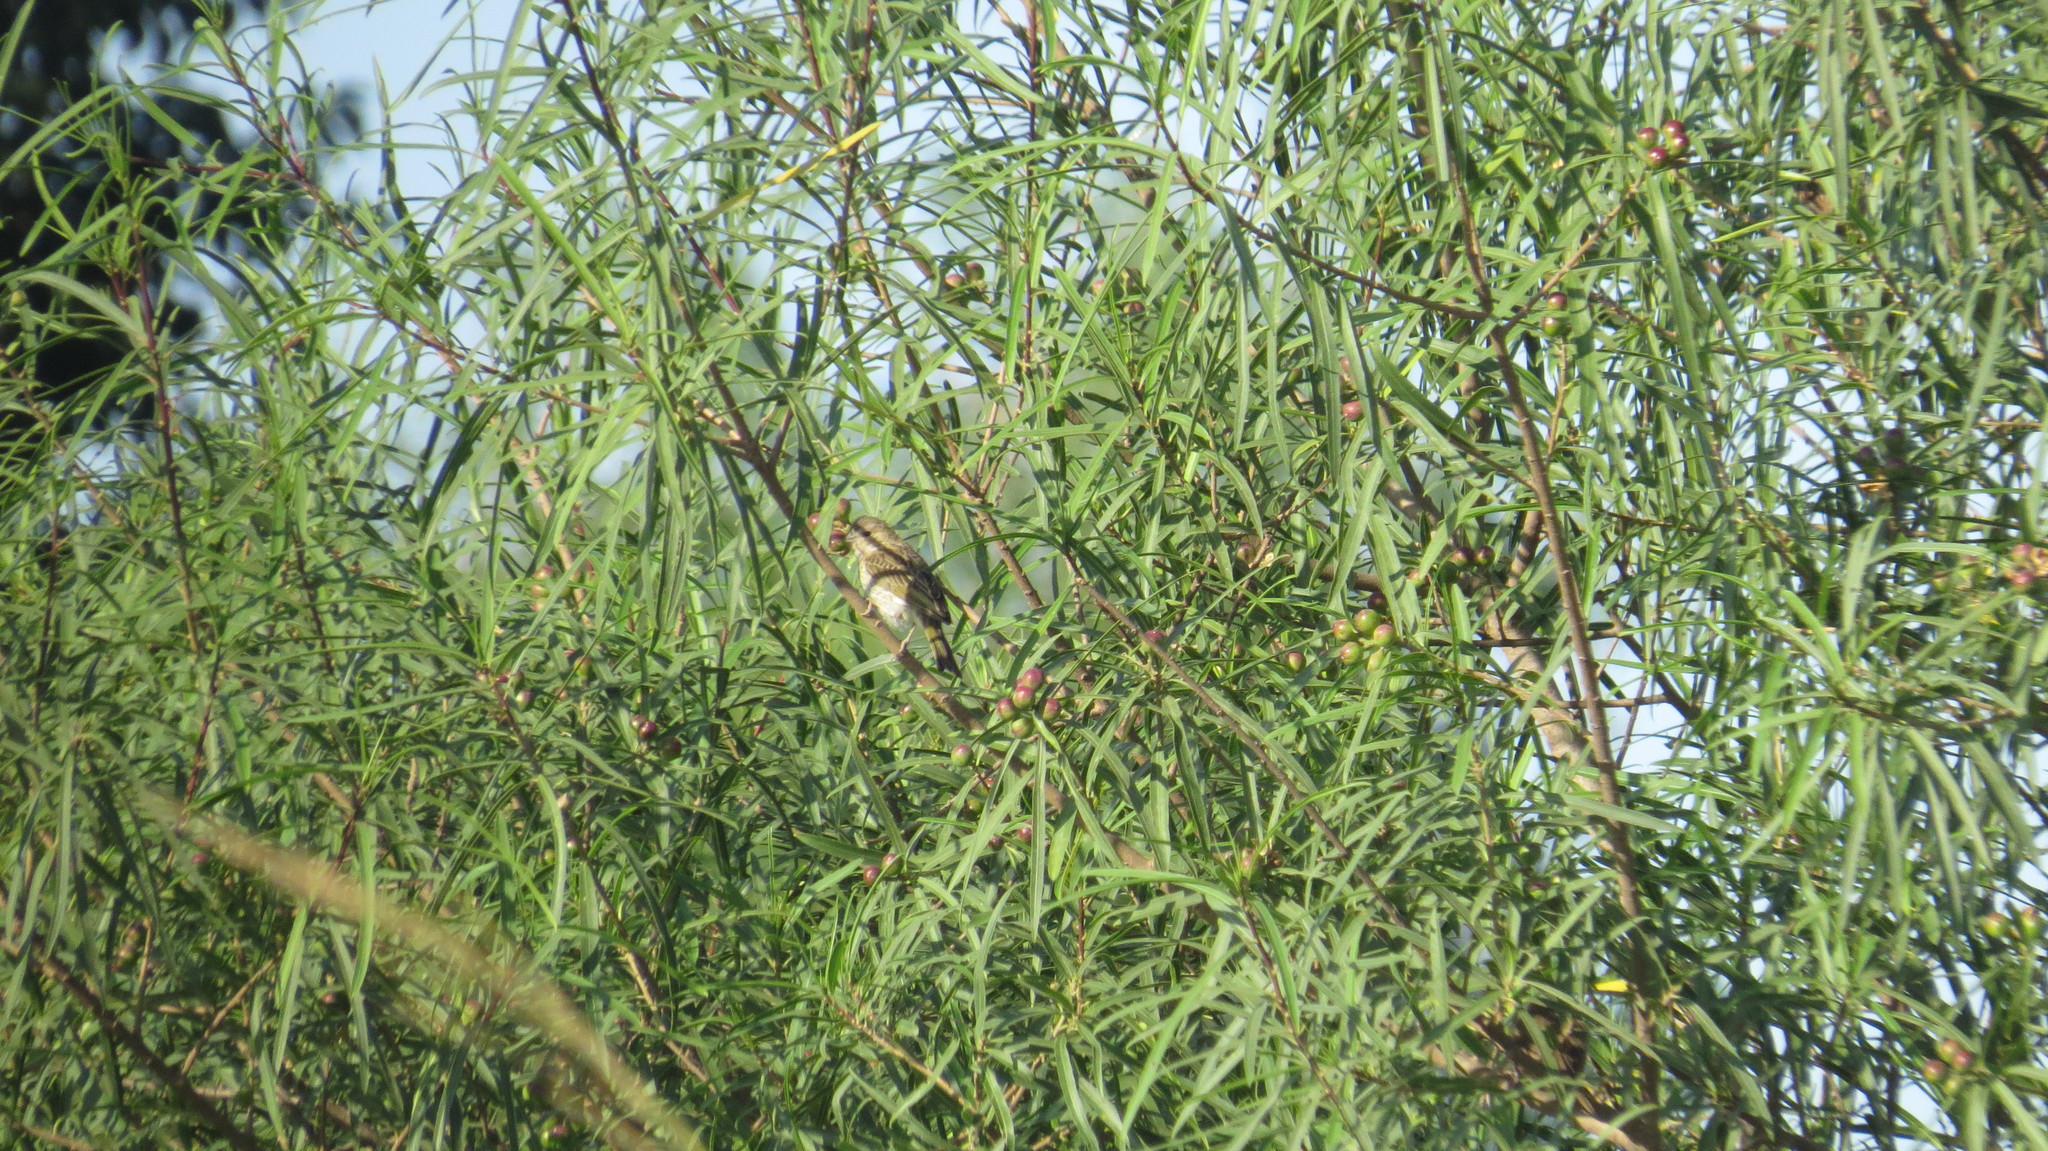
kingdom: Animalia
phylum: Chordata
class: Aves
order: Passeriformes
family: Thraupidae
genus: Sicalis
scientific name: Sicalis flaveola
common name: Saffron finch
